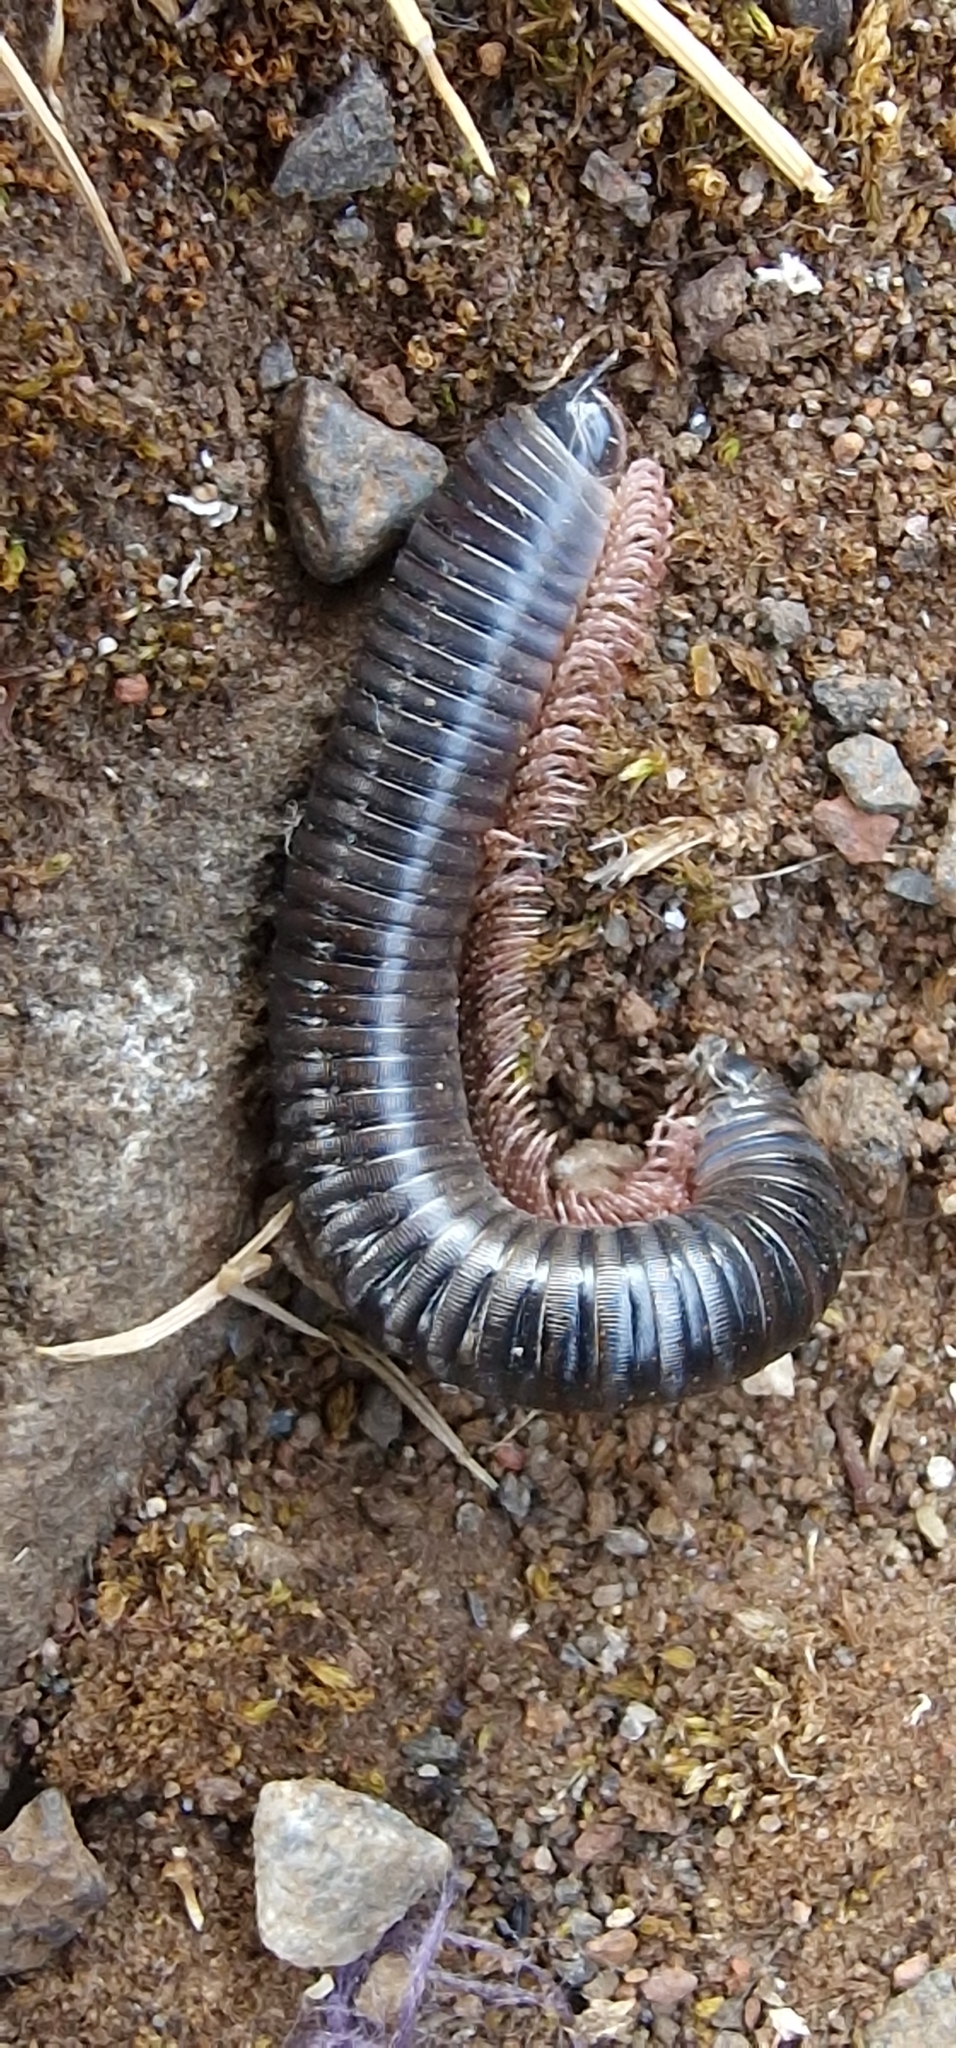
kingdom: Animalia
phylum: Arthropoda
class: Diplopoda
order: Julida
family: Julidae
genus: Ommatoiulus
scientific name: Ommatoiulus moreleti
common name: Portuguese millipede
